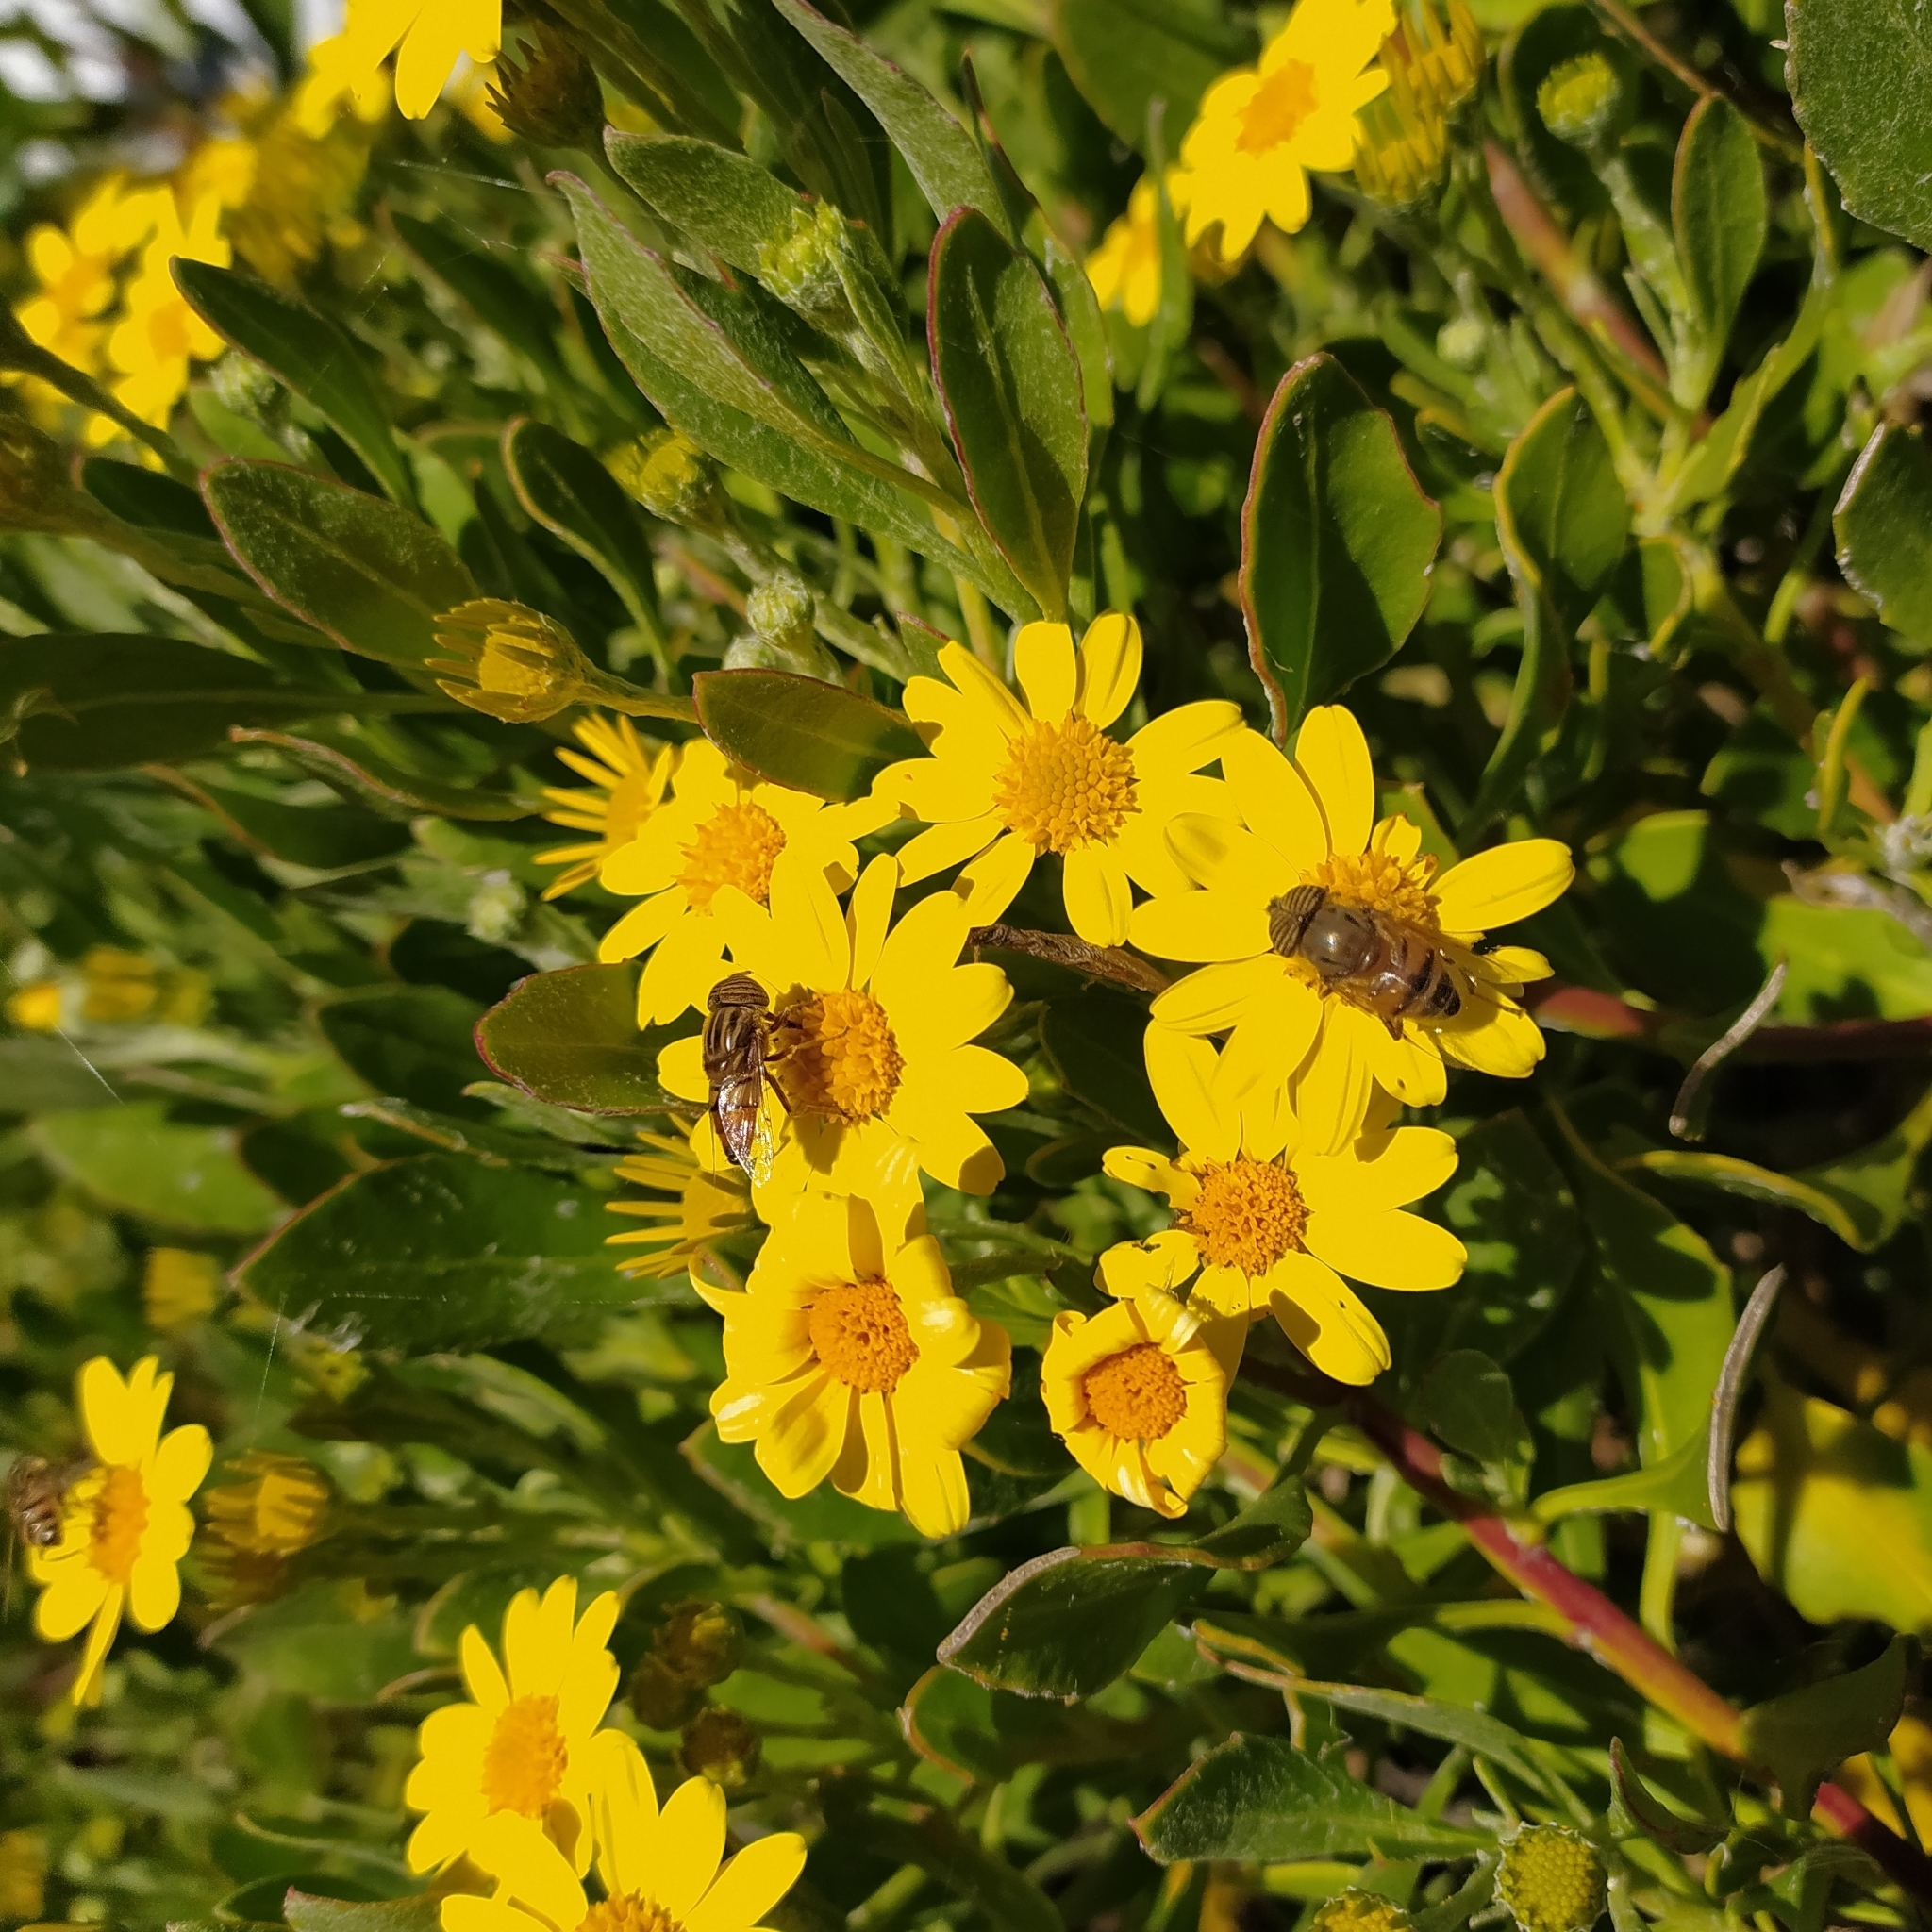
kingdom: Animalia
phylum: Arthropoda
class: Insecta
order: Diptera
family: Syrphidae
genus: Eristalinus
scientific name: Eristalinus taeniops
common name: Syrphid fly
